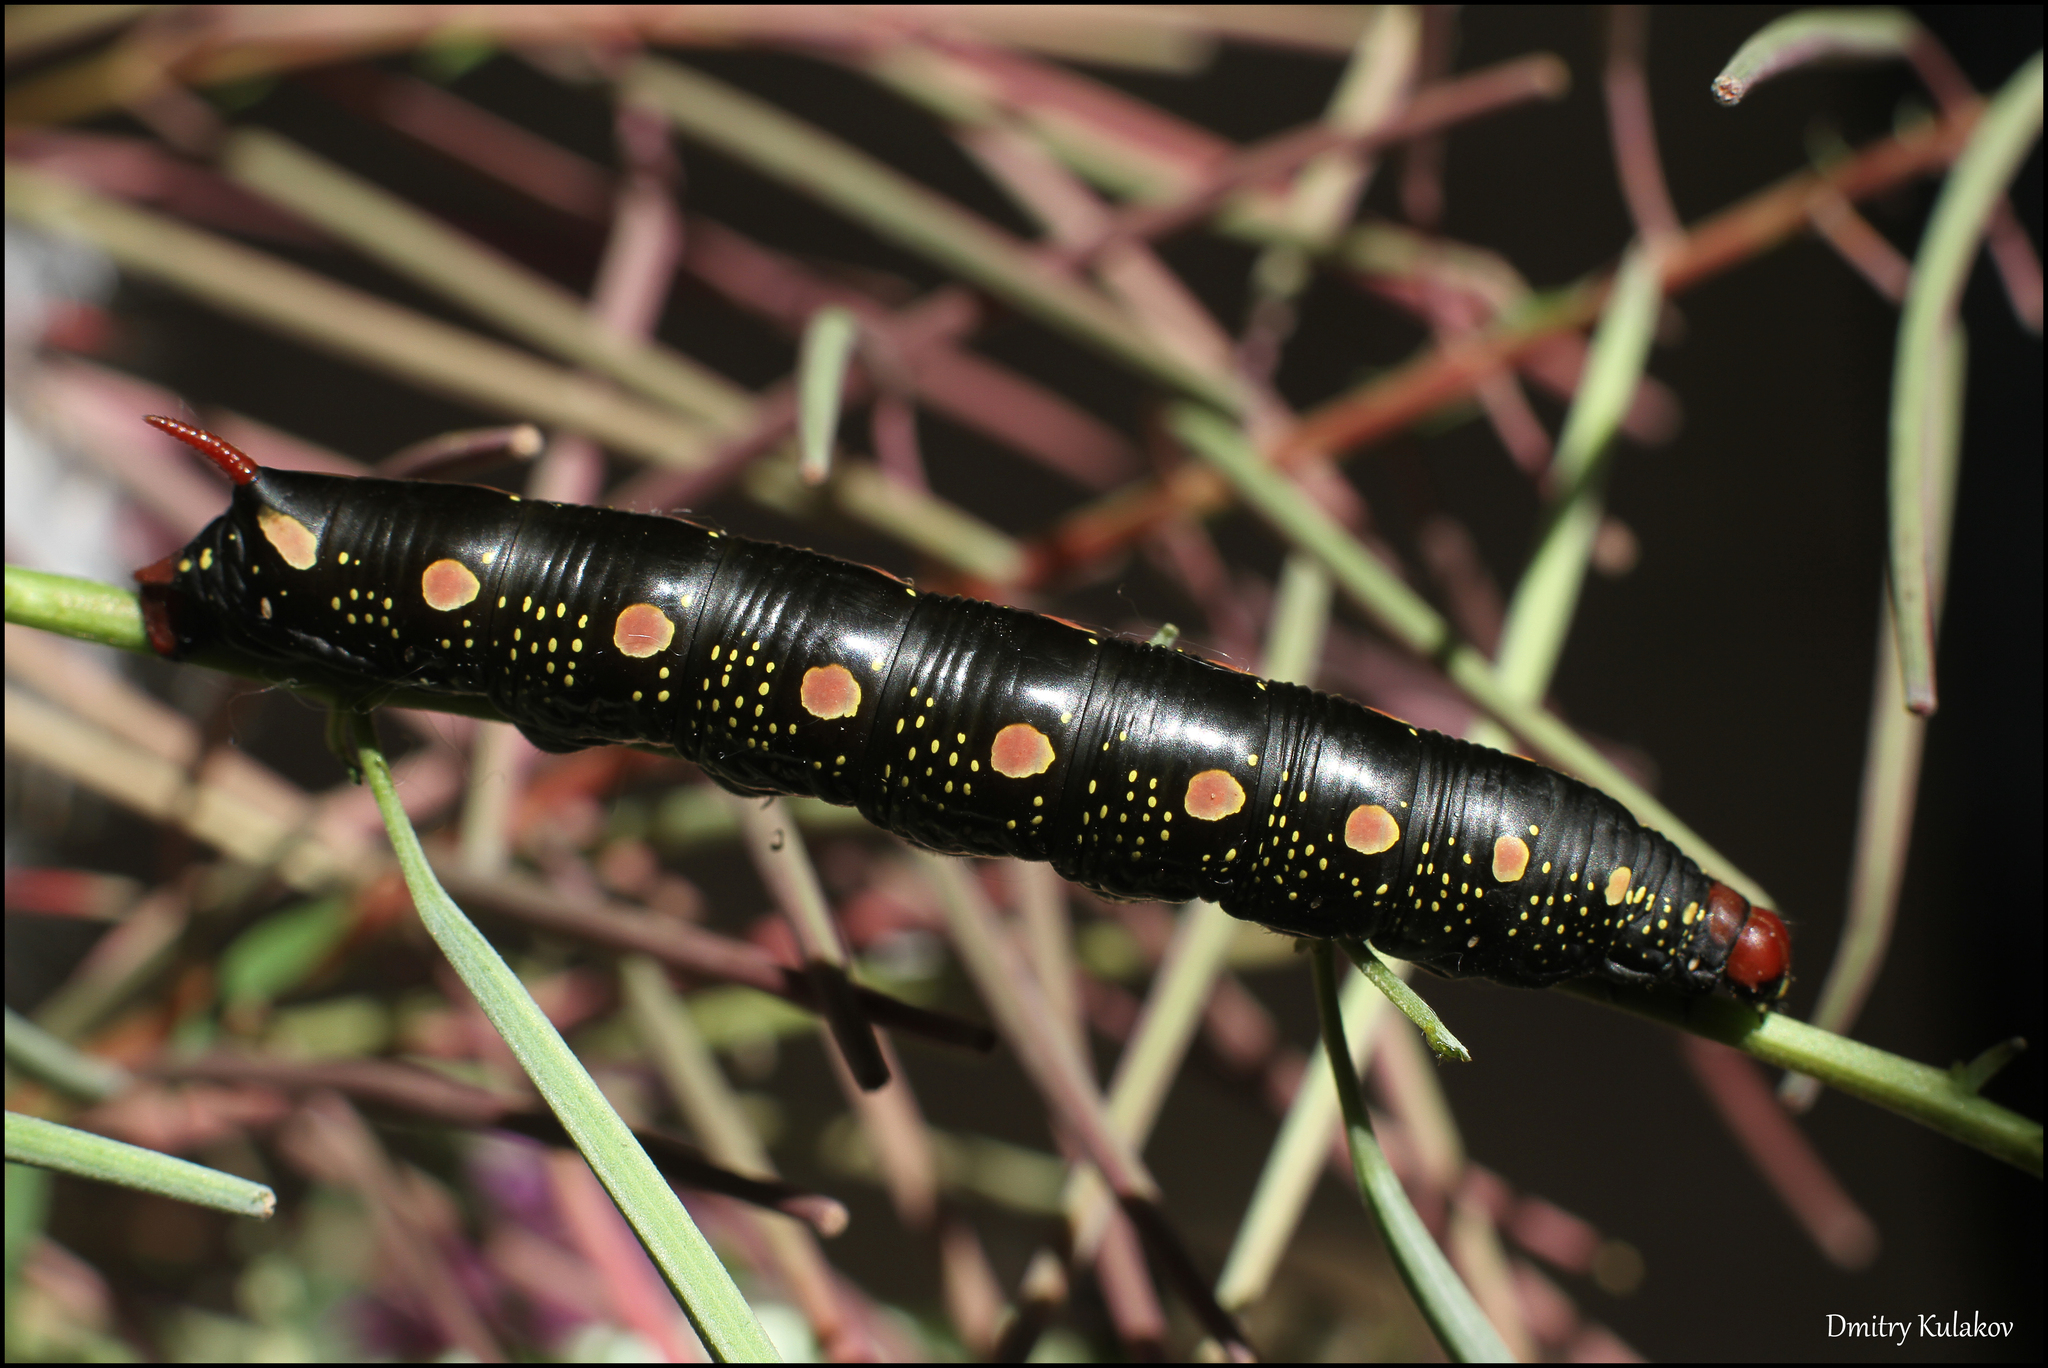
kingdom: Animalia
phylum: Arthropoda
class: Insecta
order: Lepidoptera
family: Sphingidae
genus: Hyles
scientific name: Hyles gallii
